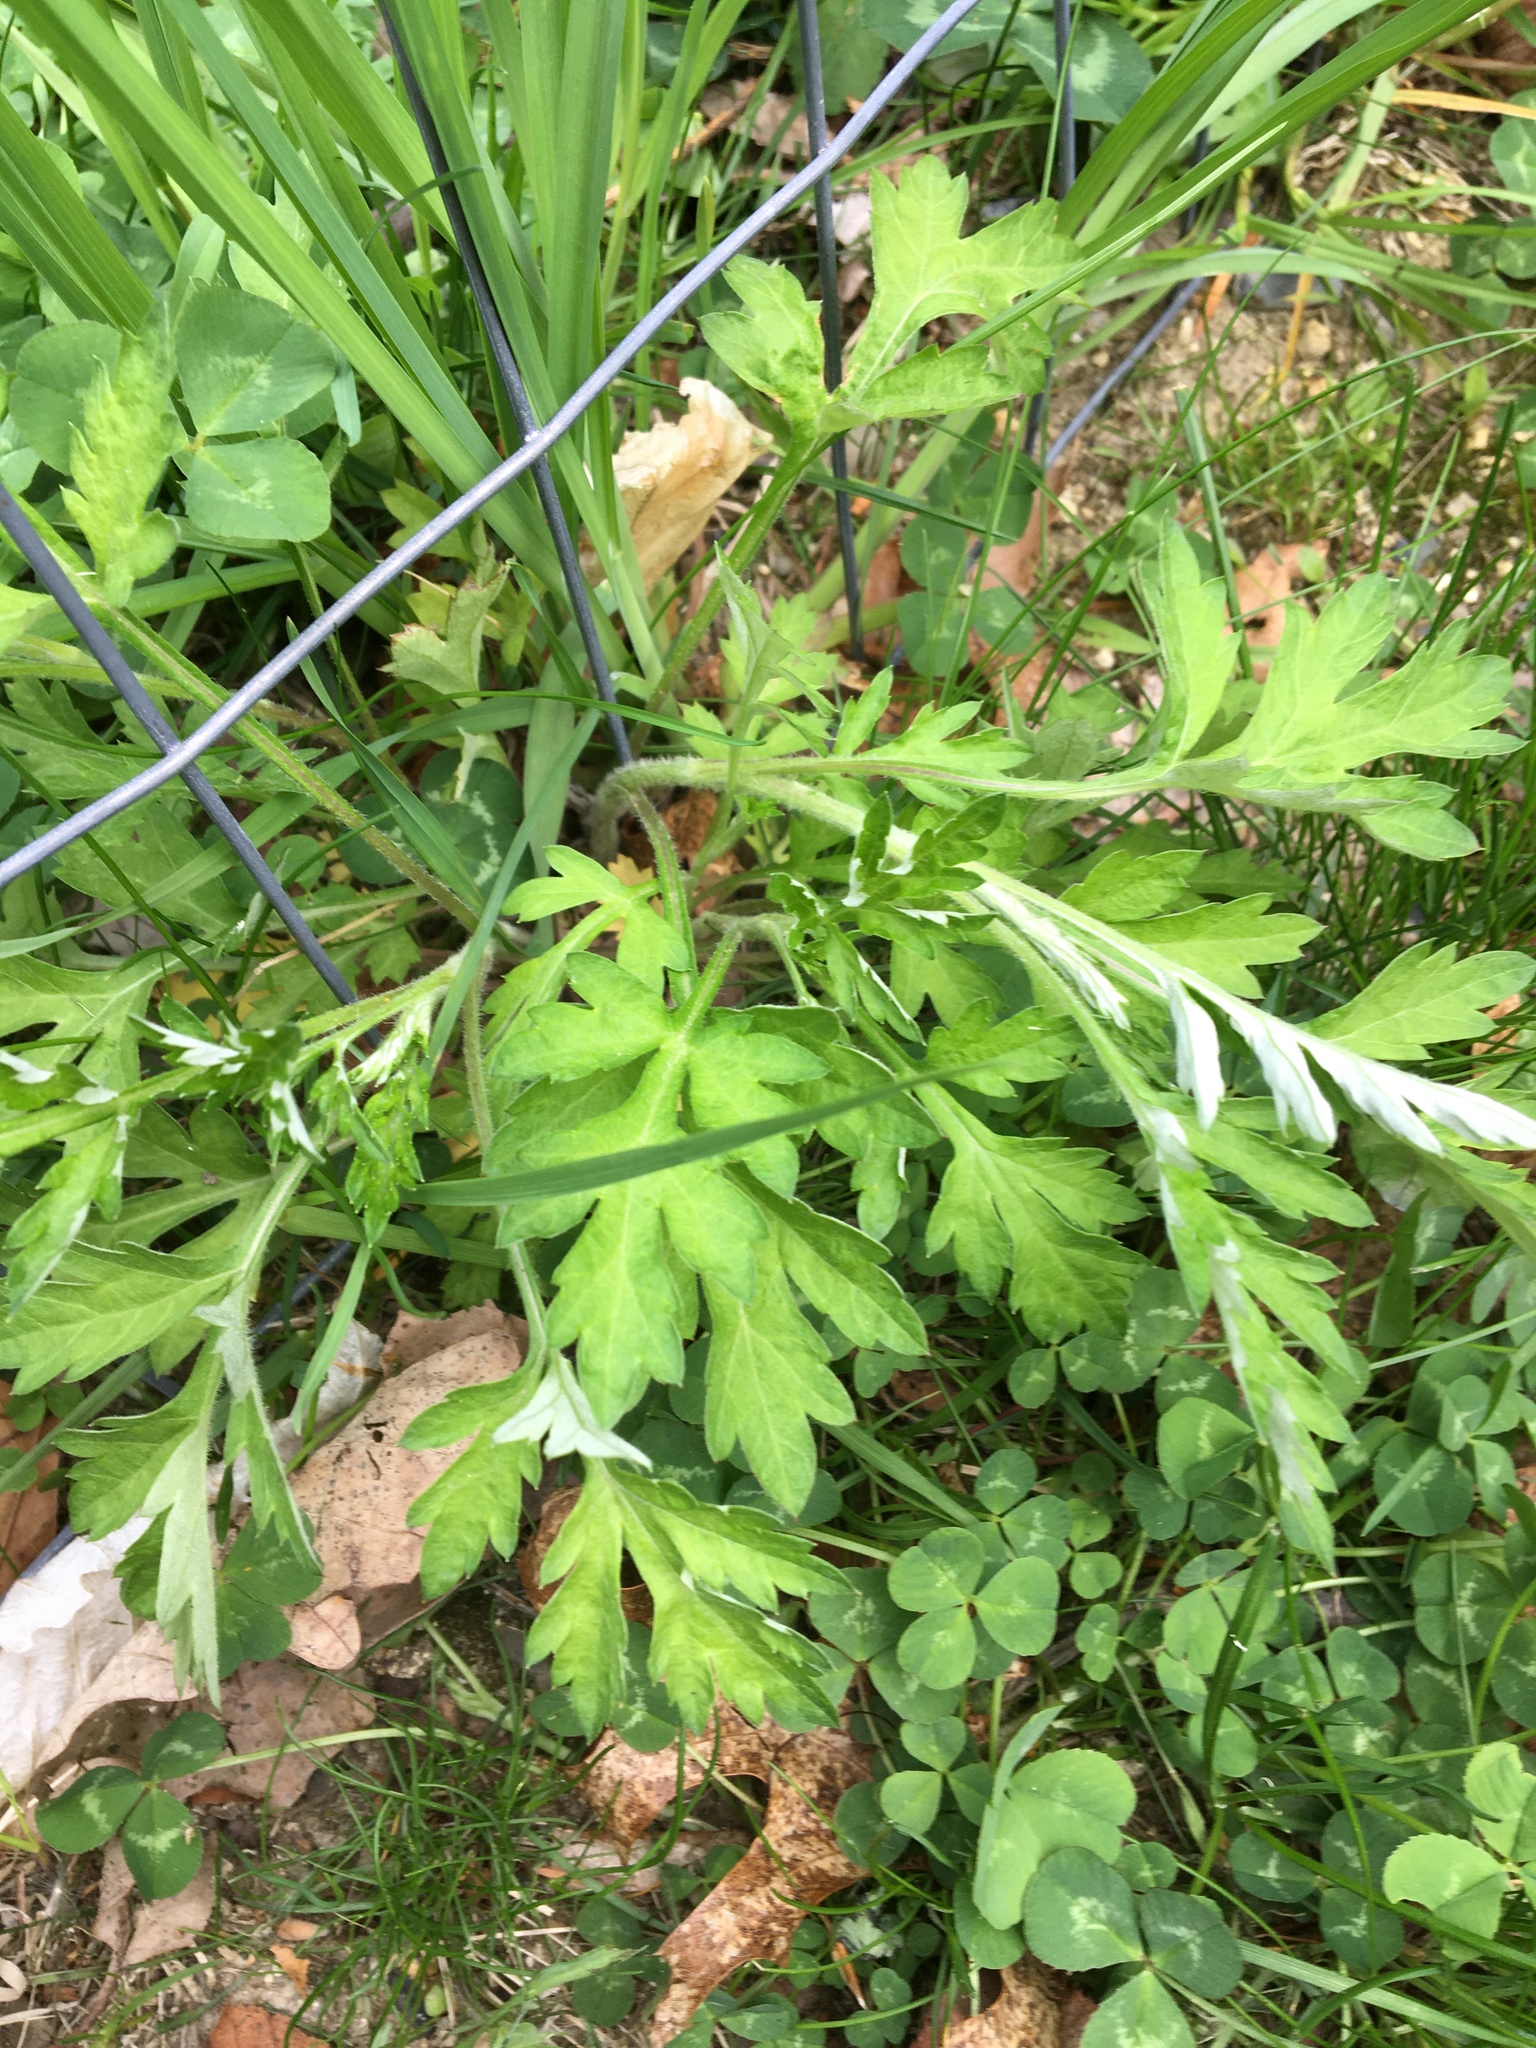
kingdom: Plantae
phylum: Tracheophyta
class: Magnoliopsida
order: Asterales
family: Asteraceae
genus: Artemisia
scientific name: Artemisia vulgaris
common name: Mugwort
